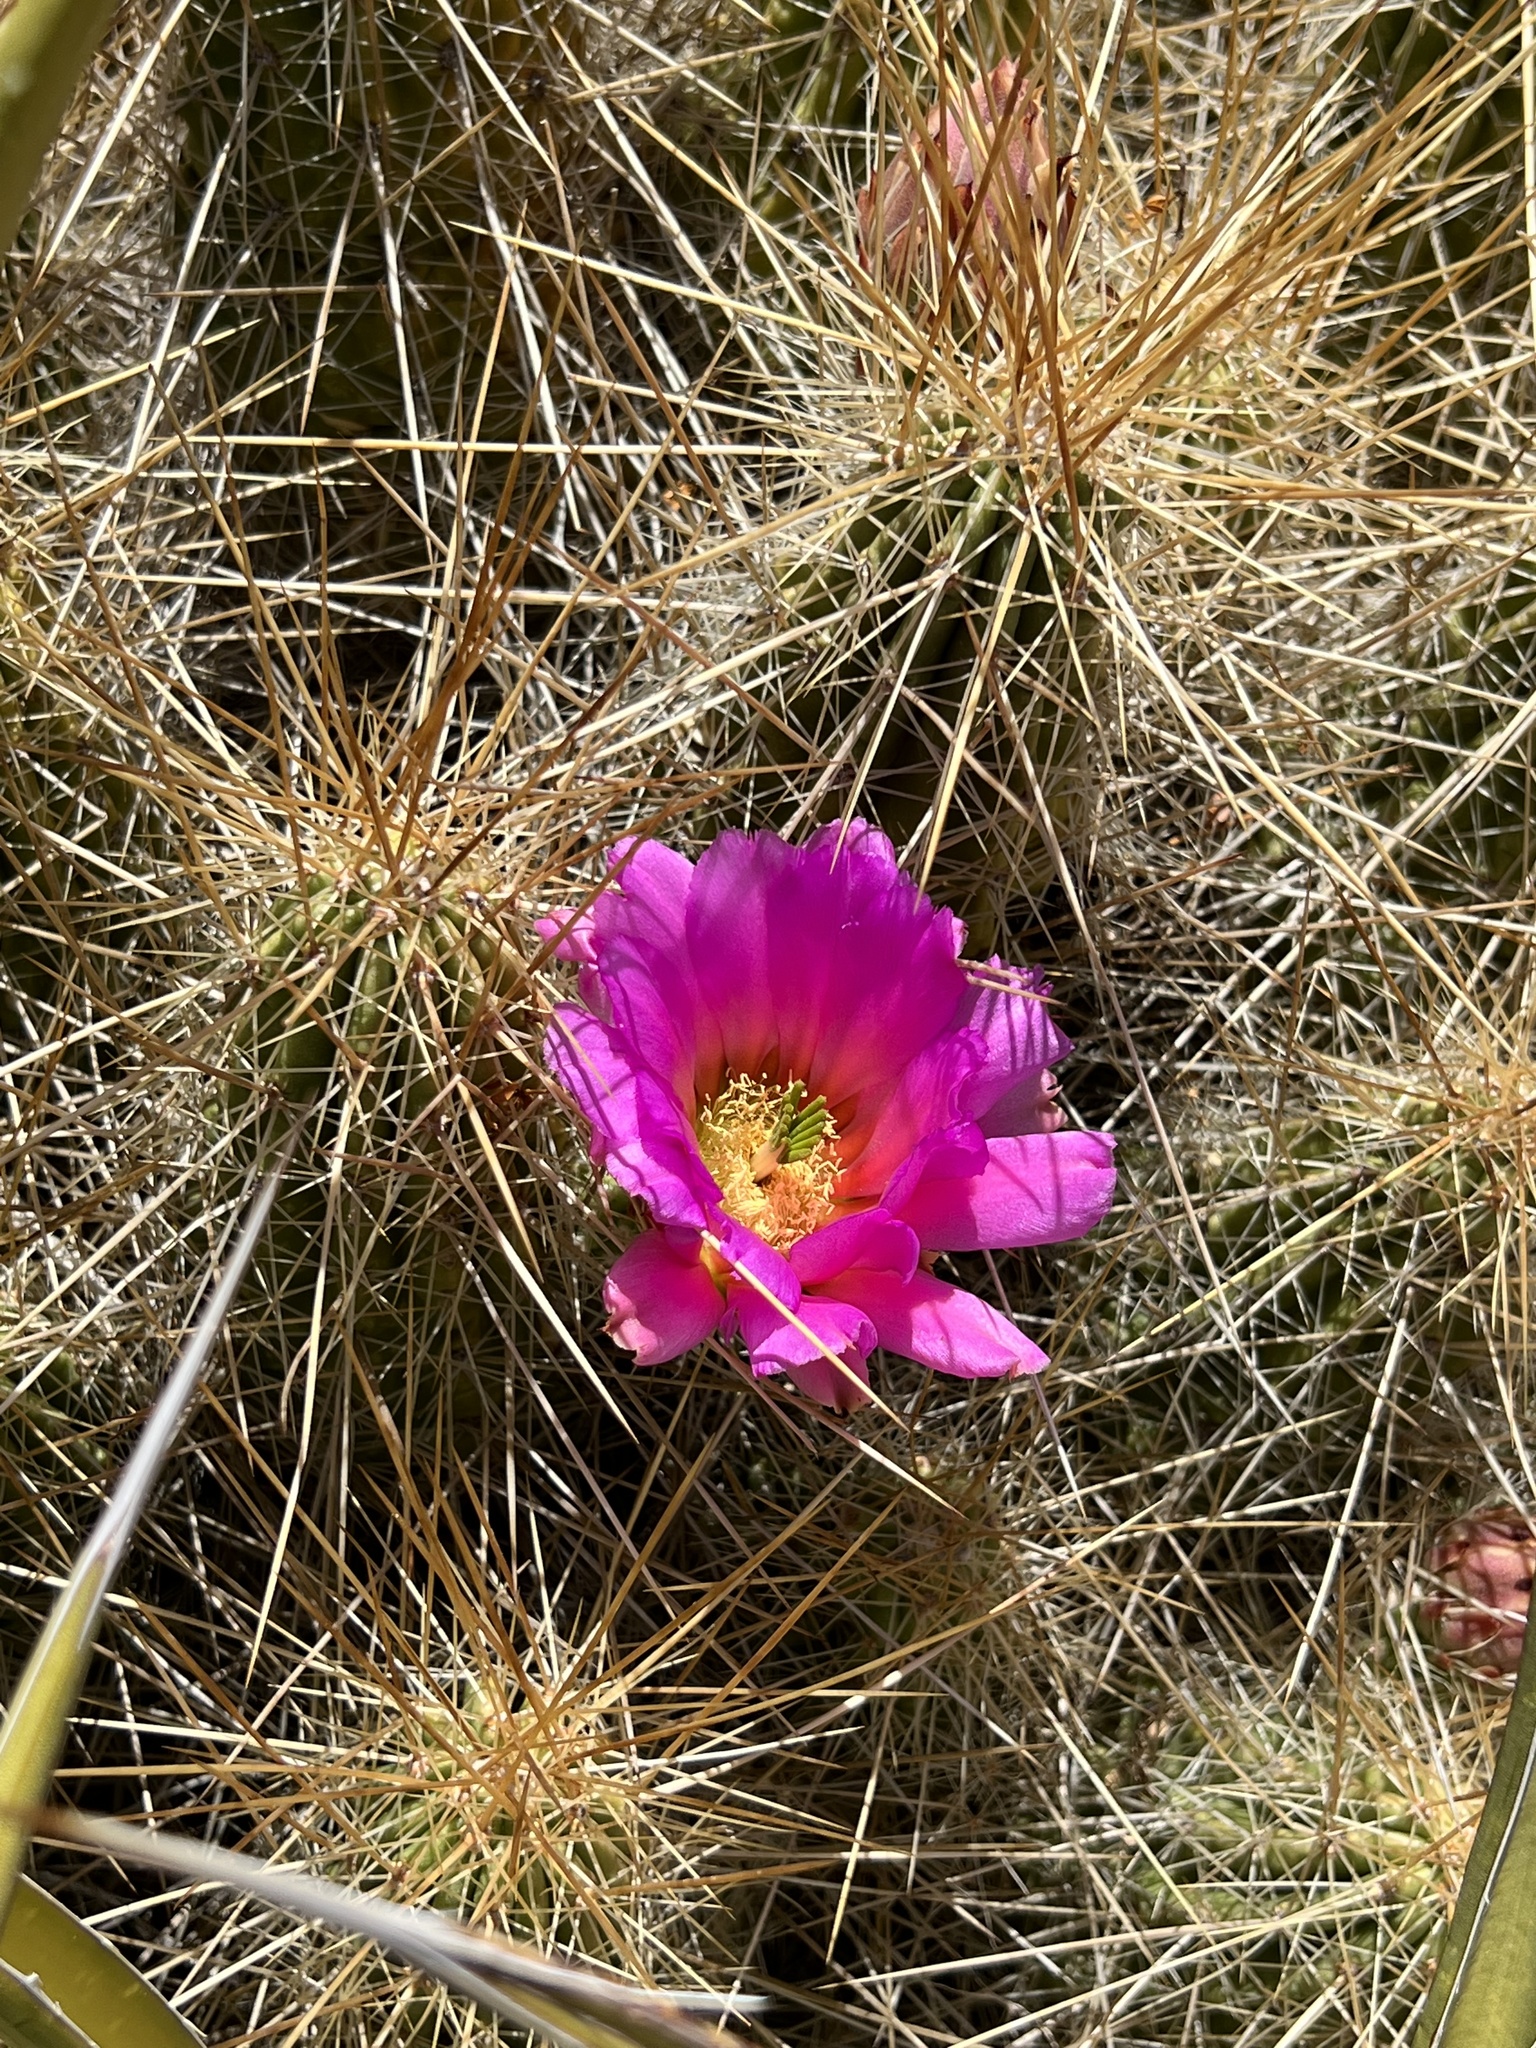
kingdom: Plantae
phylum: Tracheophyta
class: Magnoliopsida
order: Caryophyllales
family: Cactaceae
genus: Echinocereus
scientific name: Echinocereus stramineus
